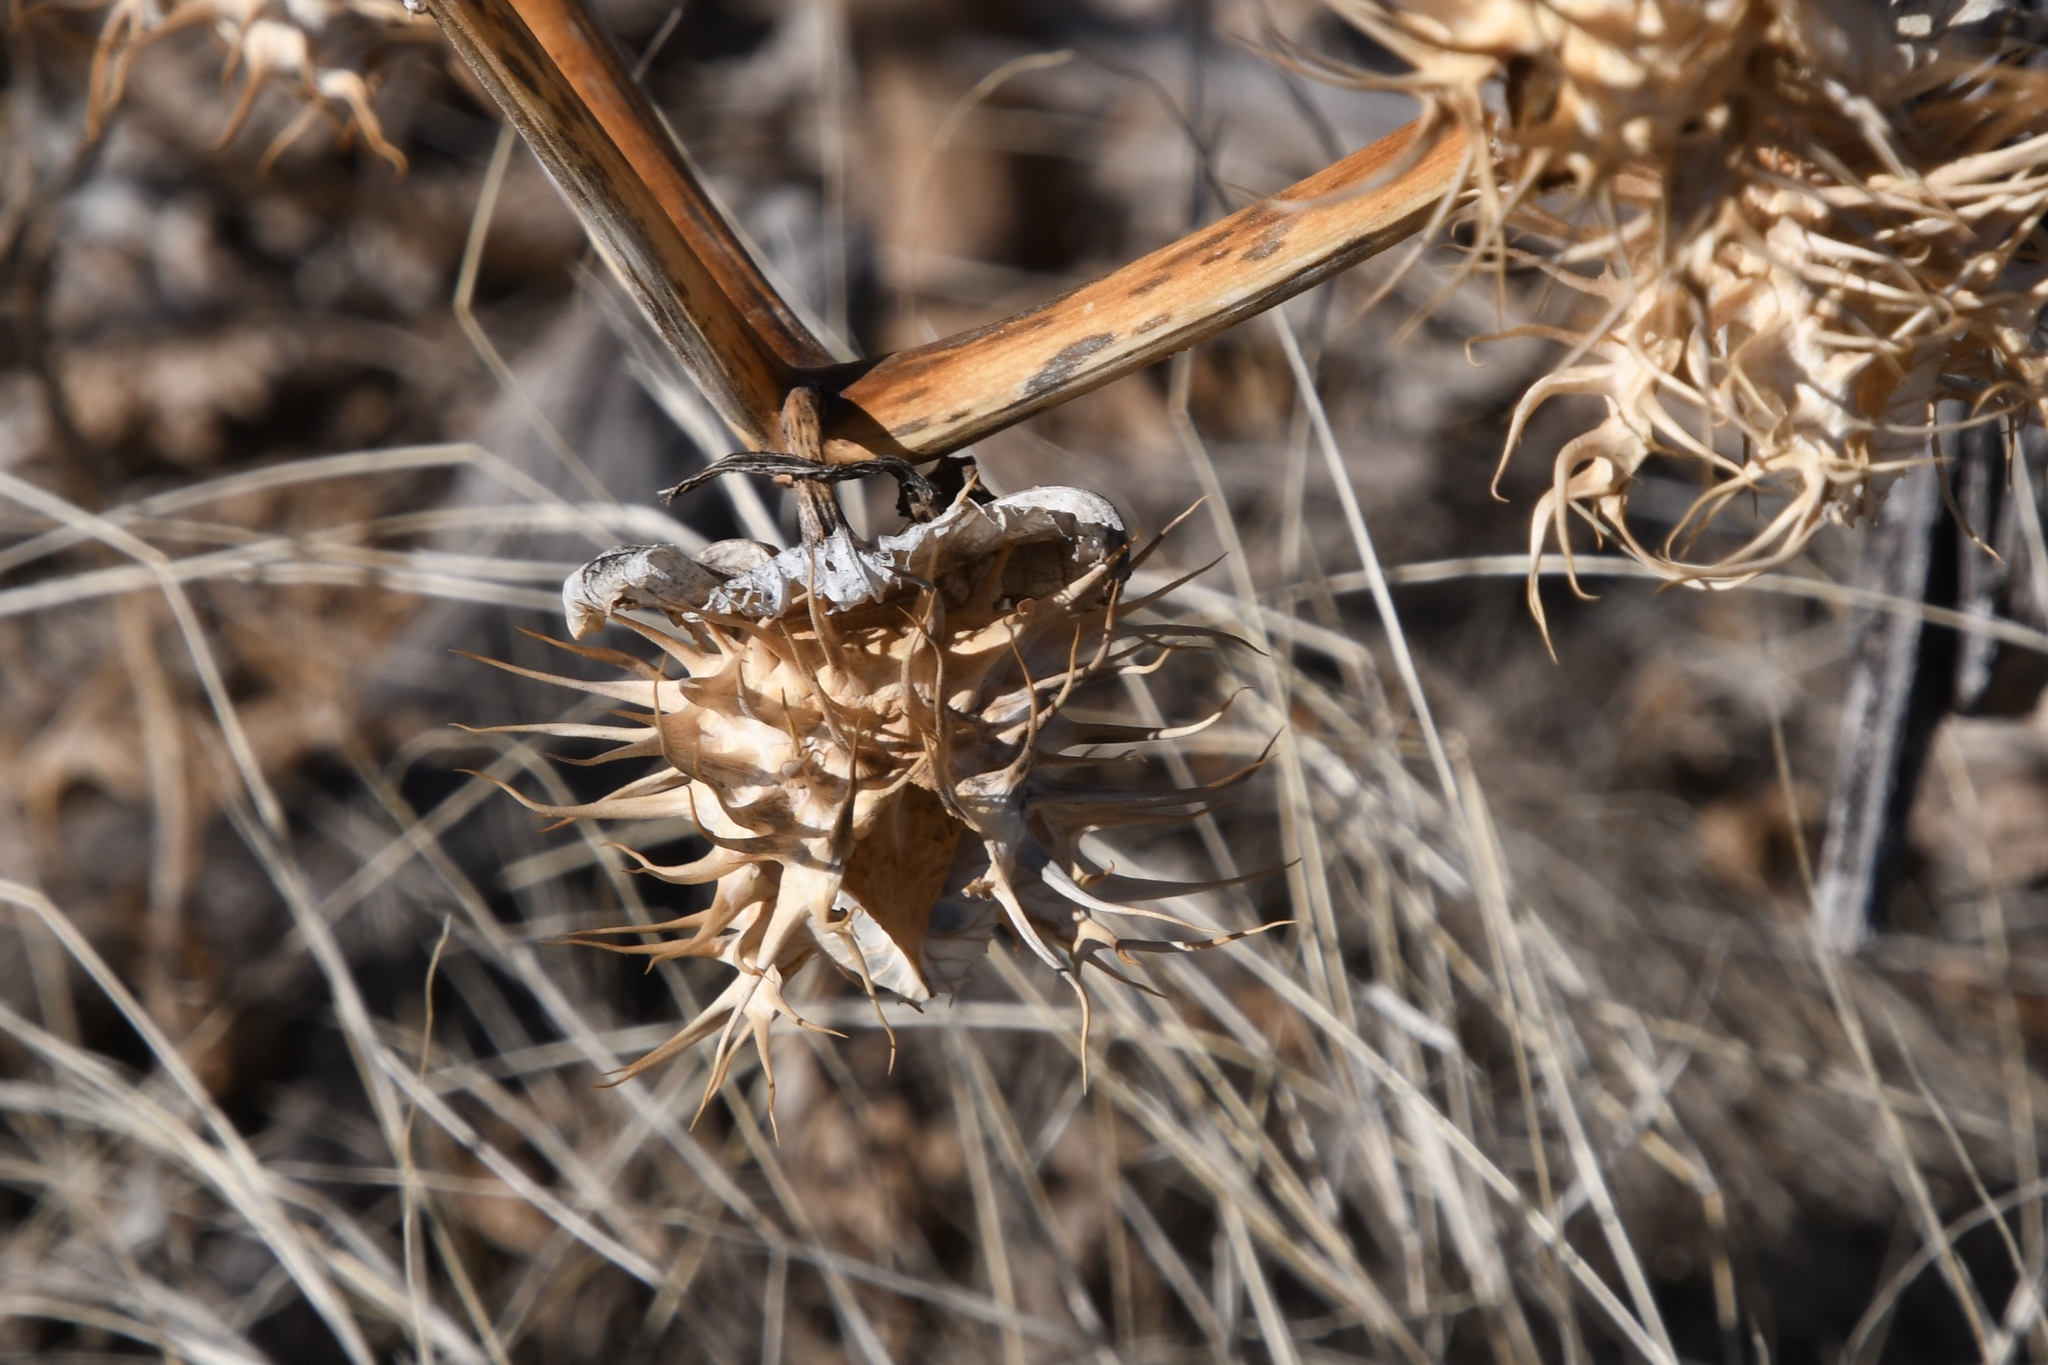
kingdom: Plantae
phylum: Tracheophyta
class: Magnoliopsida
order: Solanales
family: Solanaceae
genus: Datura
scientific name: Datura discolor
